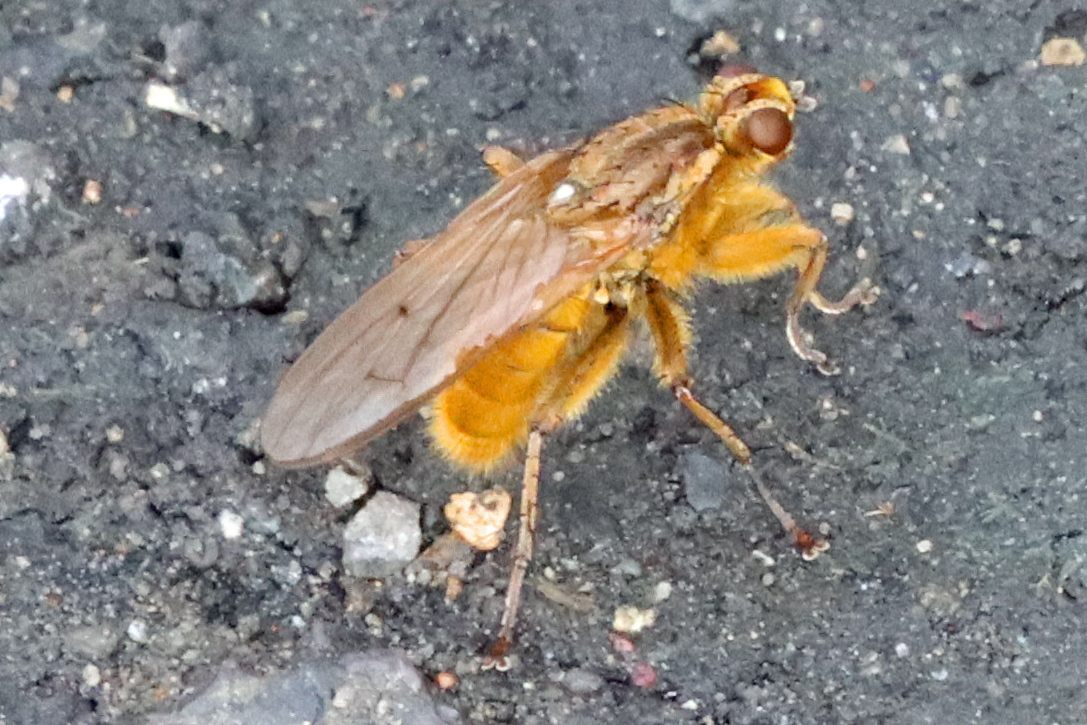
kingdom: Animalia
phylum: Arthropoda
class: Insecta
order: Diptera
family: Scathophagidae
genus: Scathophaga
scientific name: Scathophaga stercoraria
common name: Yellow dung fly
